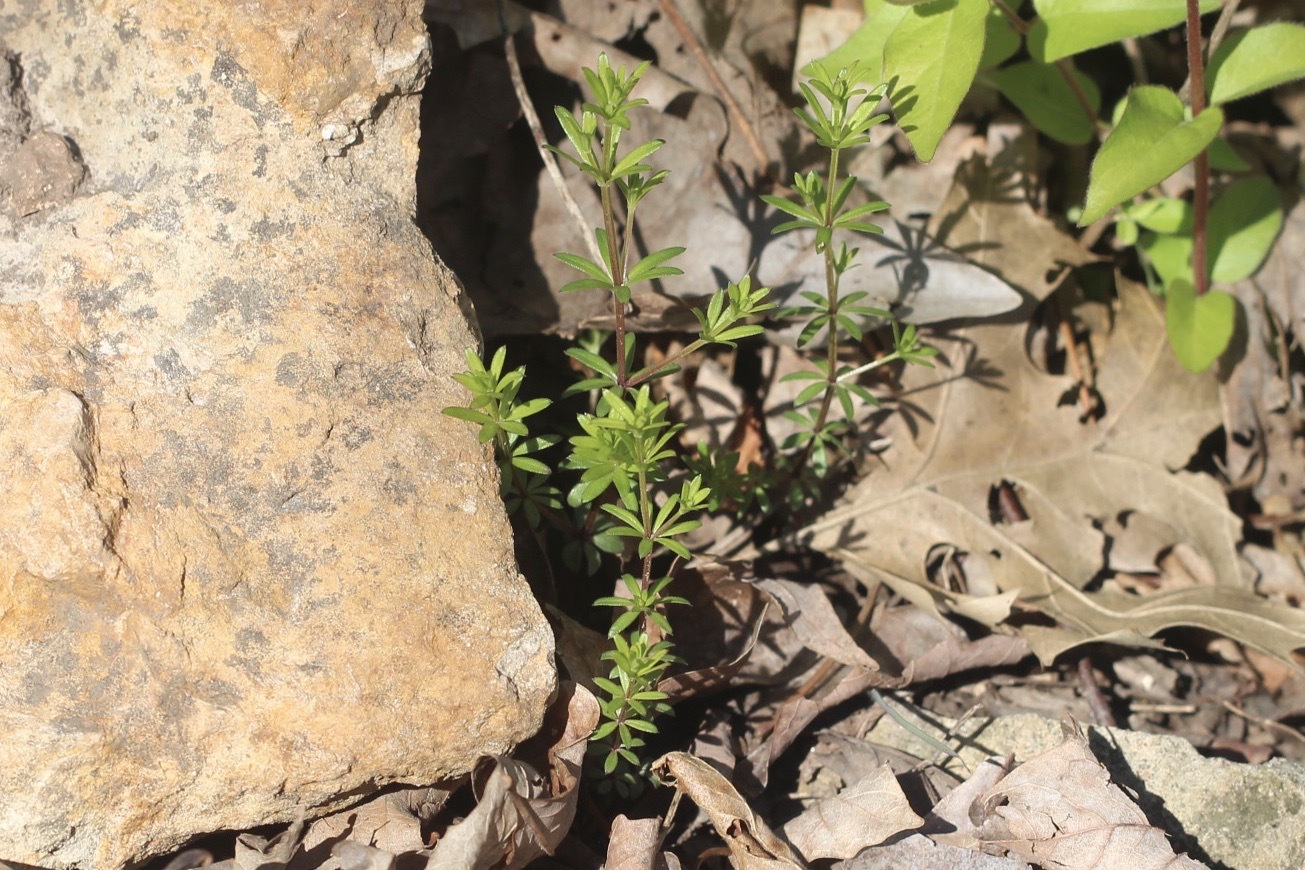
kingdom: Plantae
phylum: Tracheophyta
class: Magnoliopsida
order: Gentianales
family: Rubiaceae
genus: Galium
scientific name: Galium aparine
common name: Cleavers
